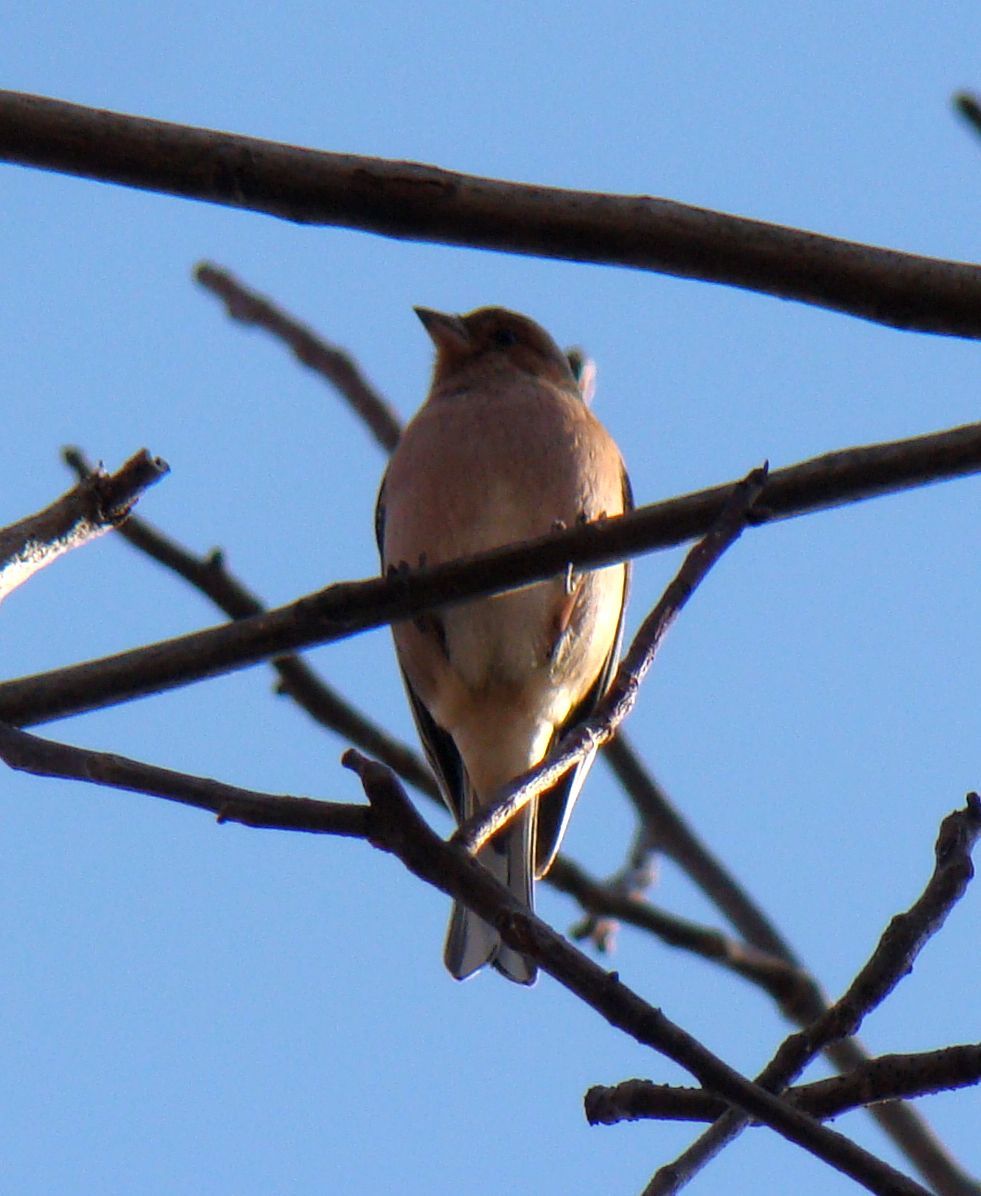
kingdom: Animalia
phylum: Chordata
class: Aves
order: Passeriformes
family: Fringillidae
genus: Fringilla
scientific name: Fringilla coelebs
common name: Common chaffinch
